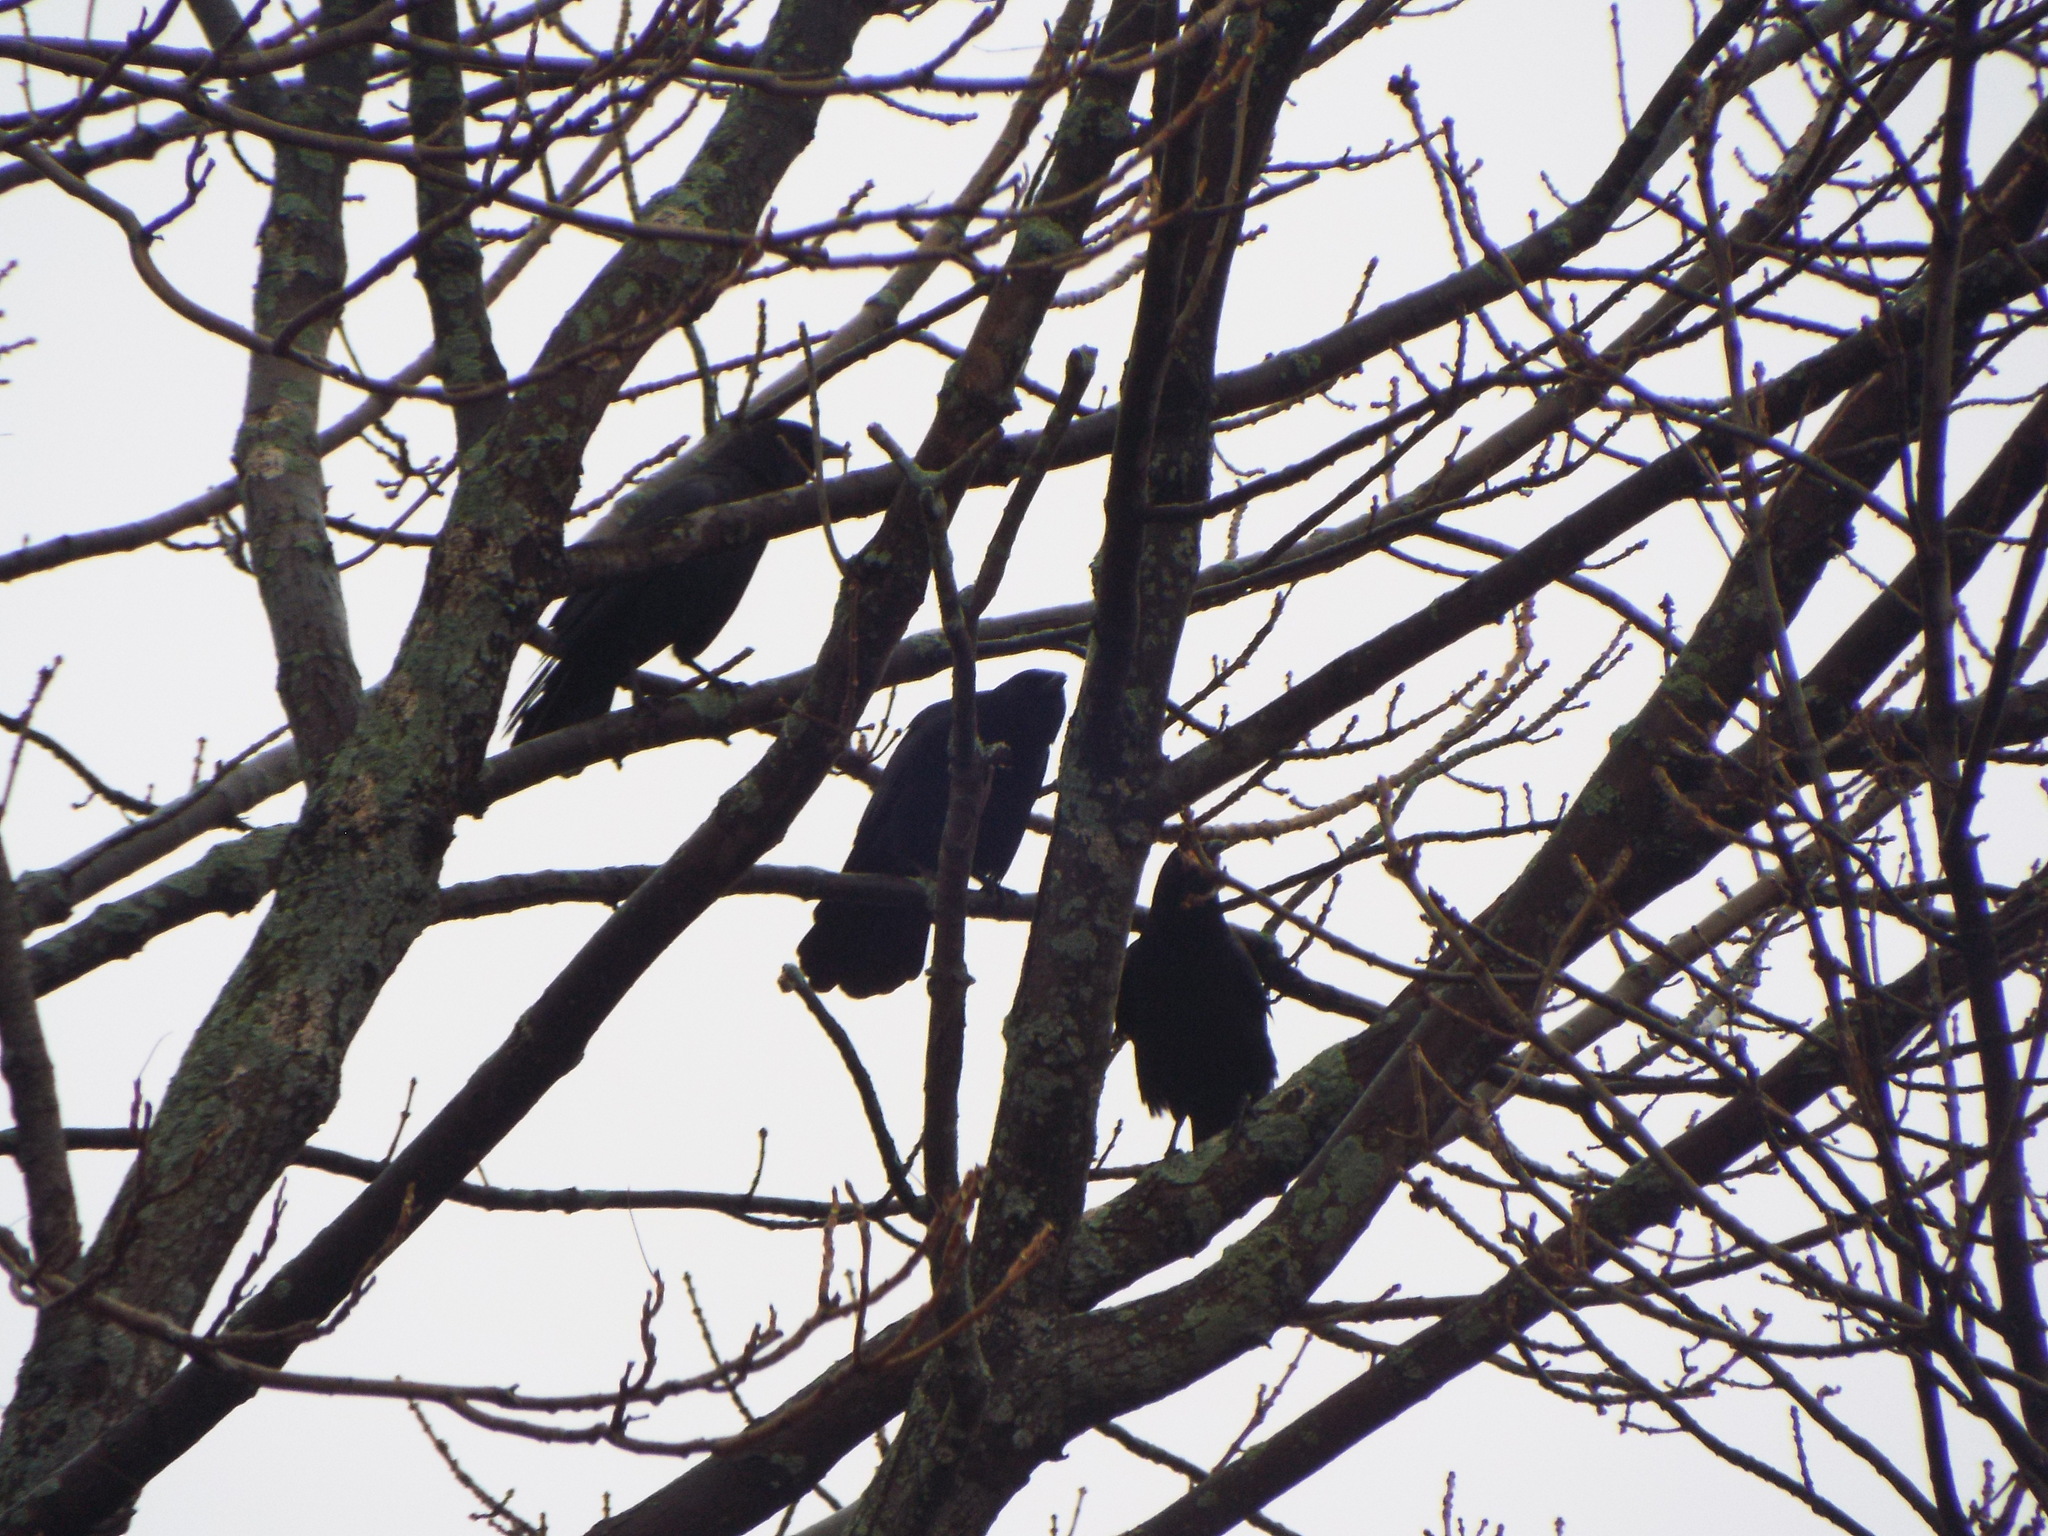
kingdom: Animalia
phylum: Chordata
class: Aves
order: Passeriformes
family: Corvidae
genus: Corvus
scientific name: Corvus brachyrhynchos
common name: American crow
